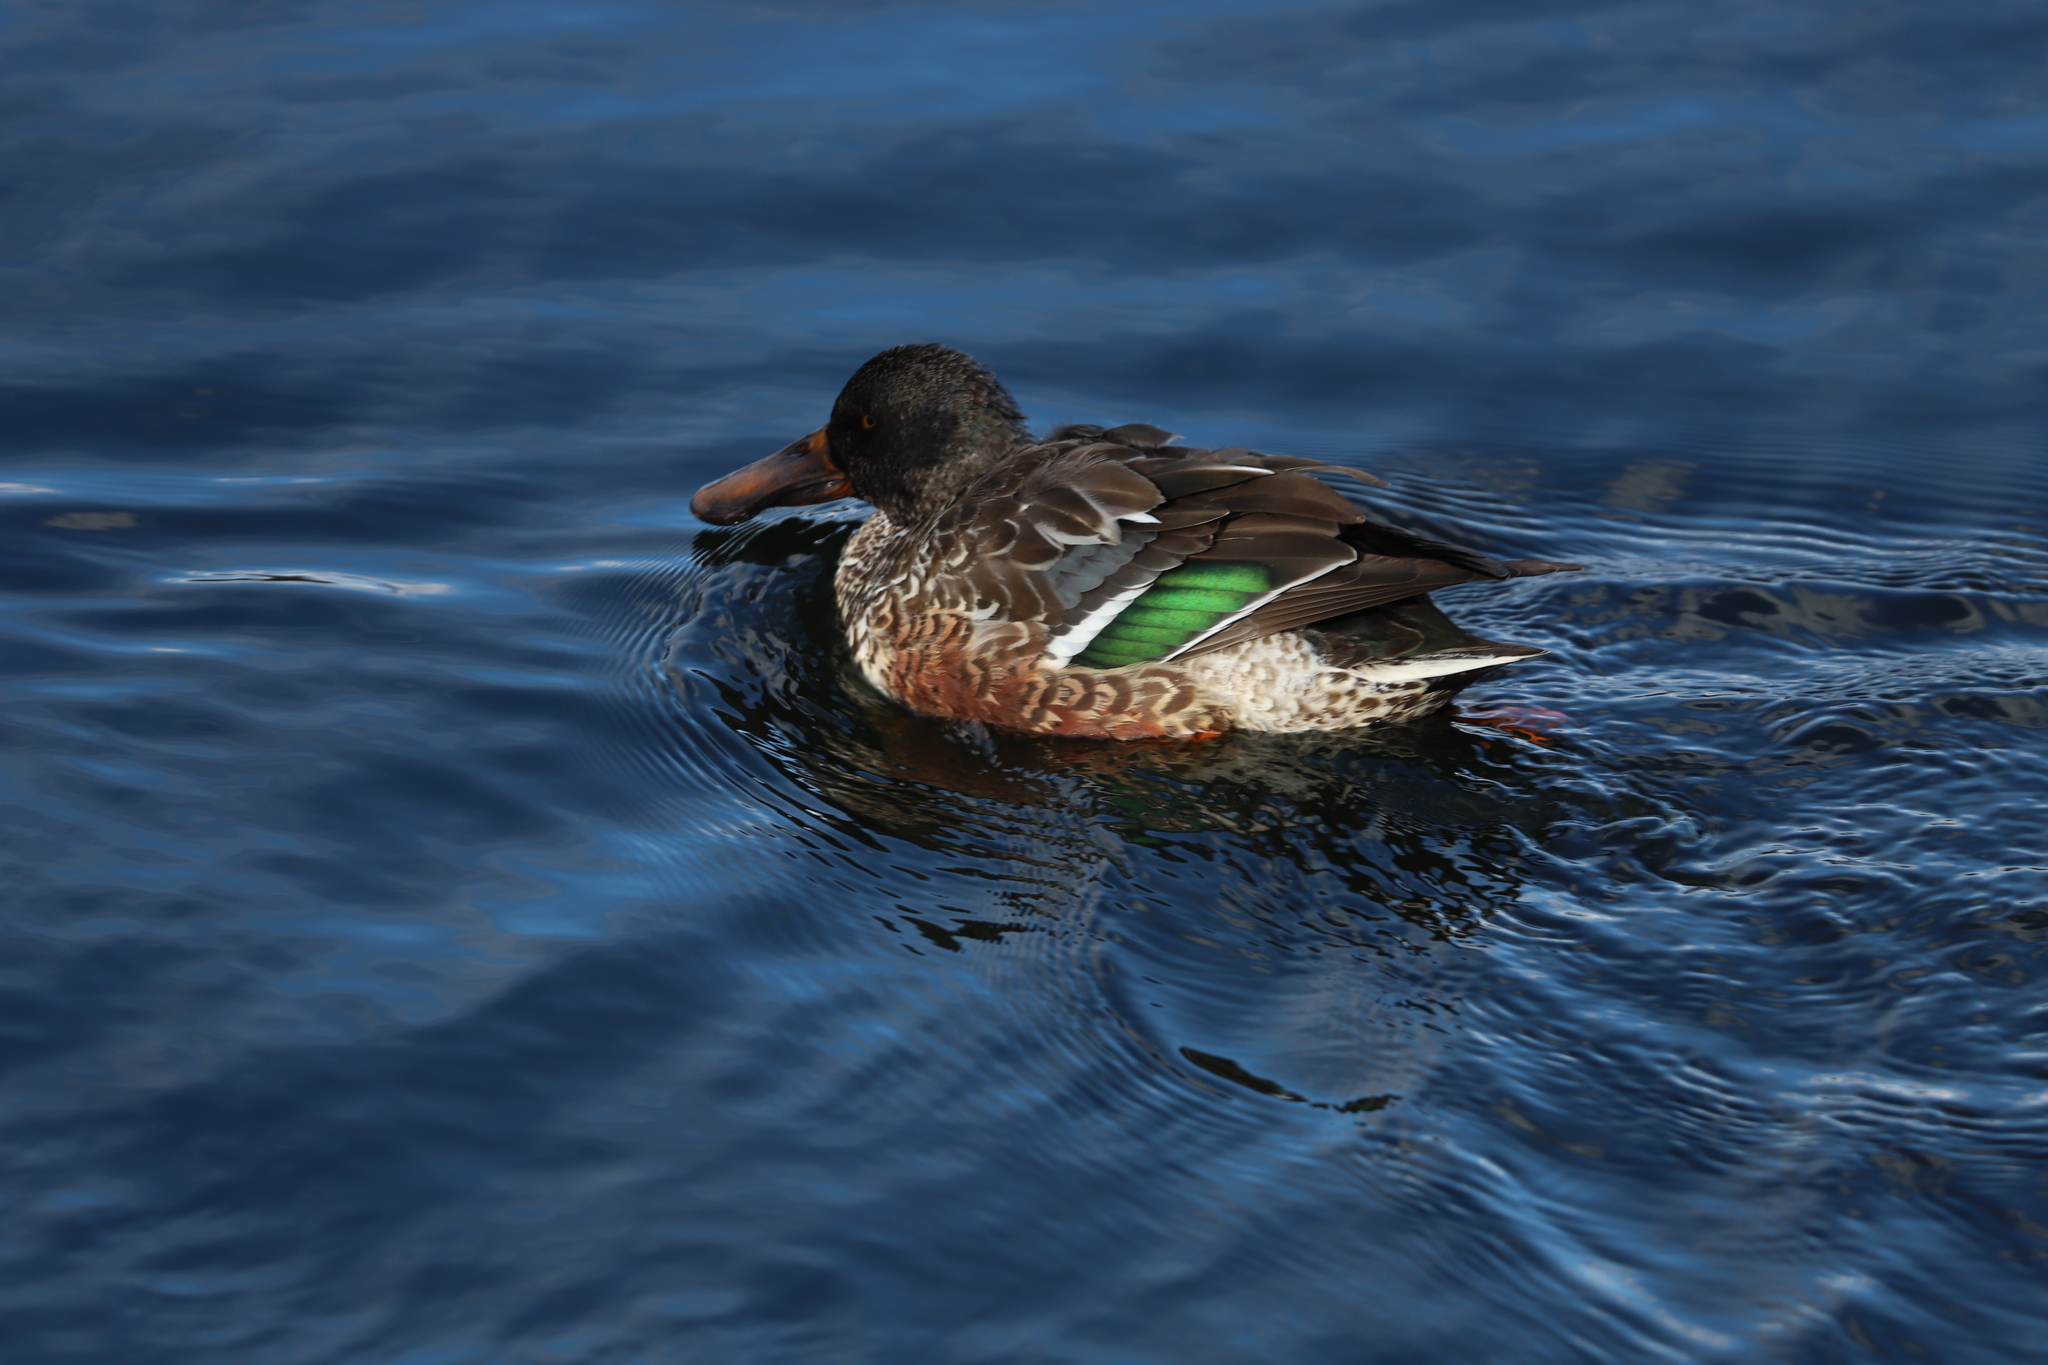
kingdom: Animalia
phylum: Chordata
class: Aves
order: Anseriformes
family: Anatidae
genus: Spatula
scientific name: Spatula clypeata
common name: Northern shoveler
